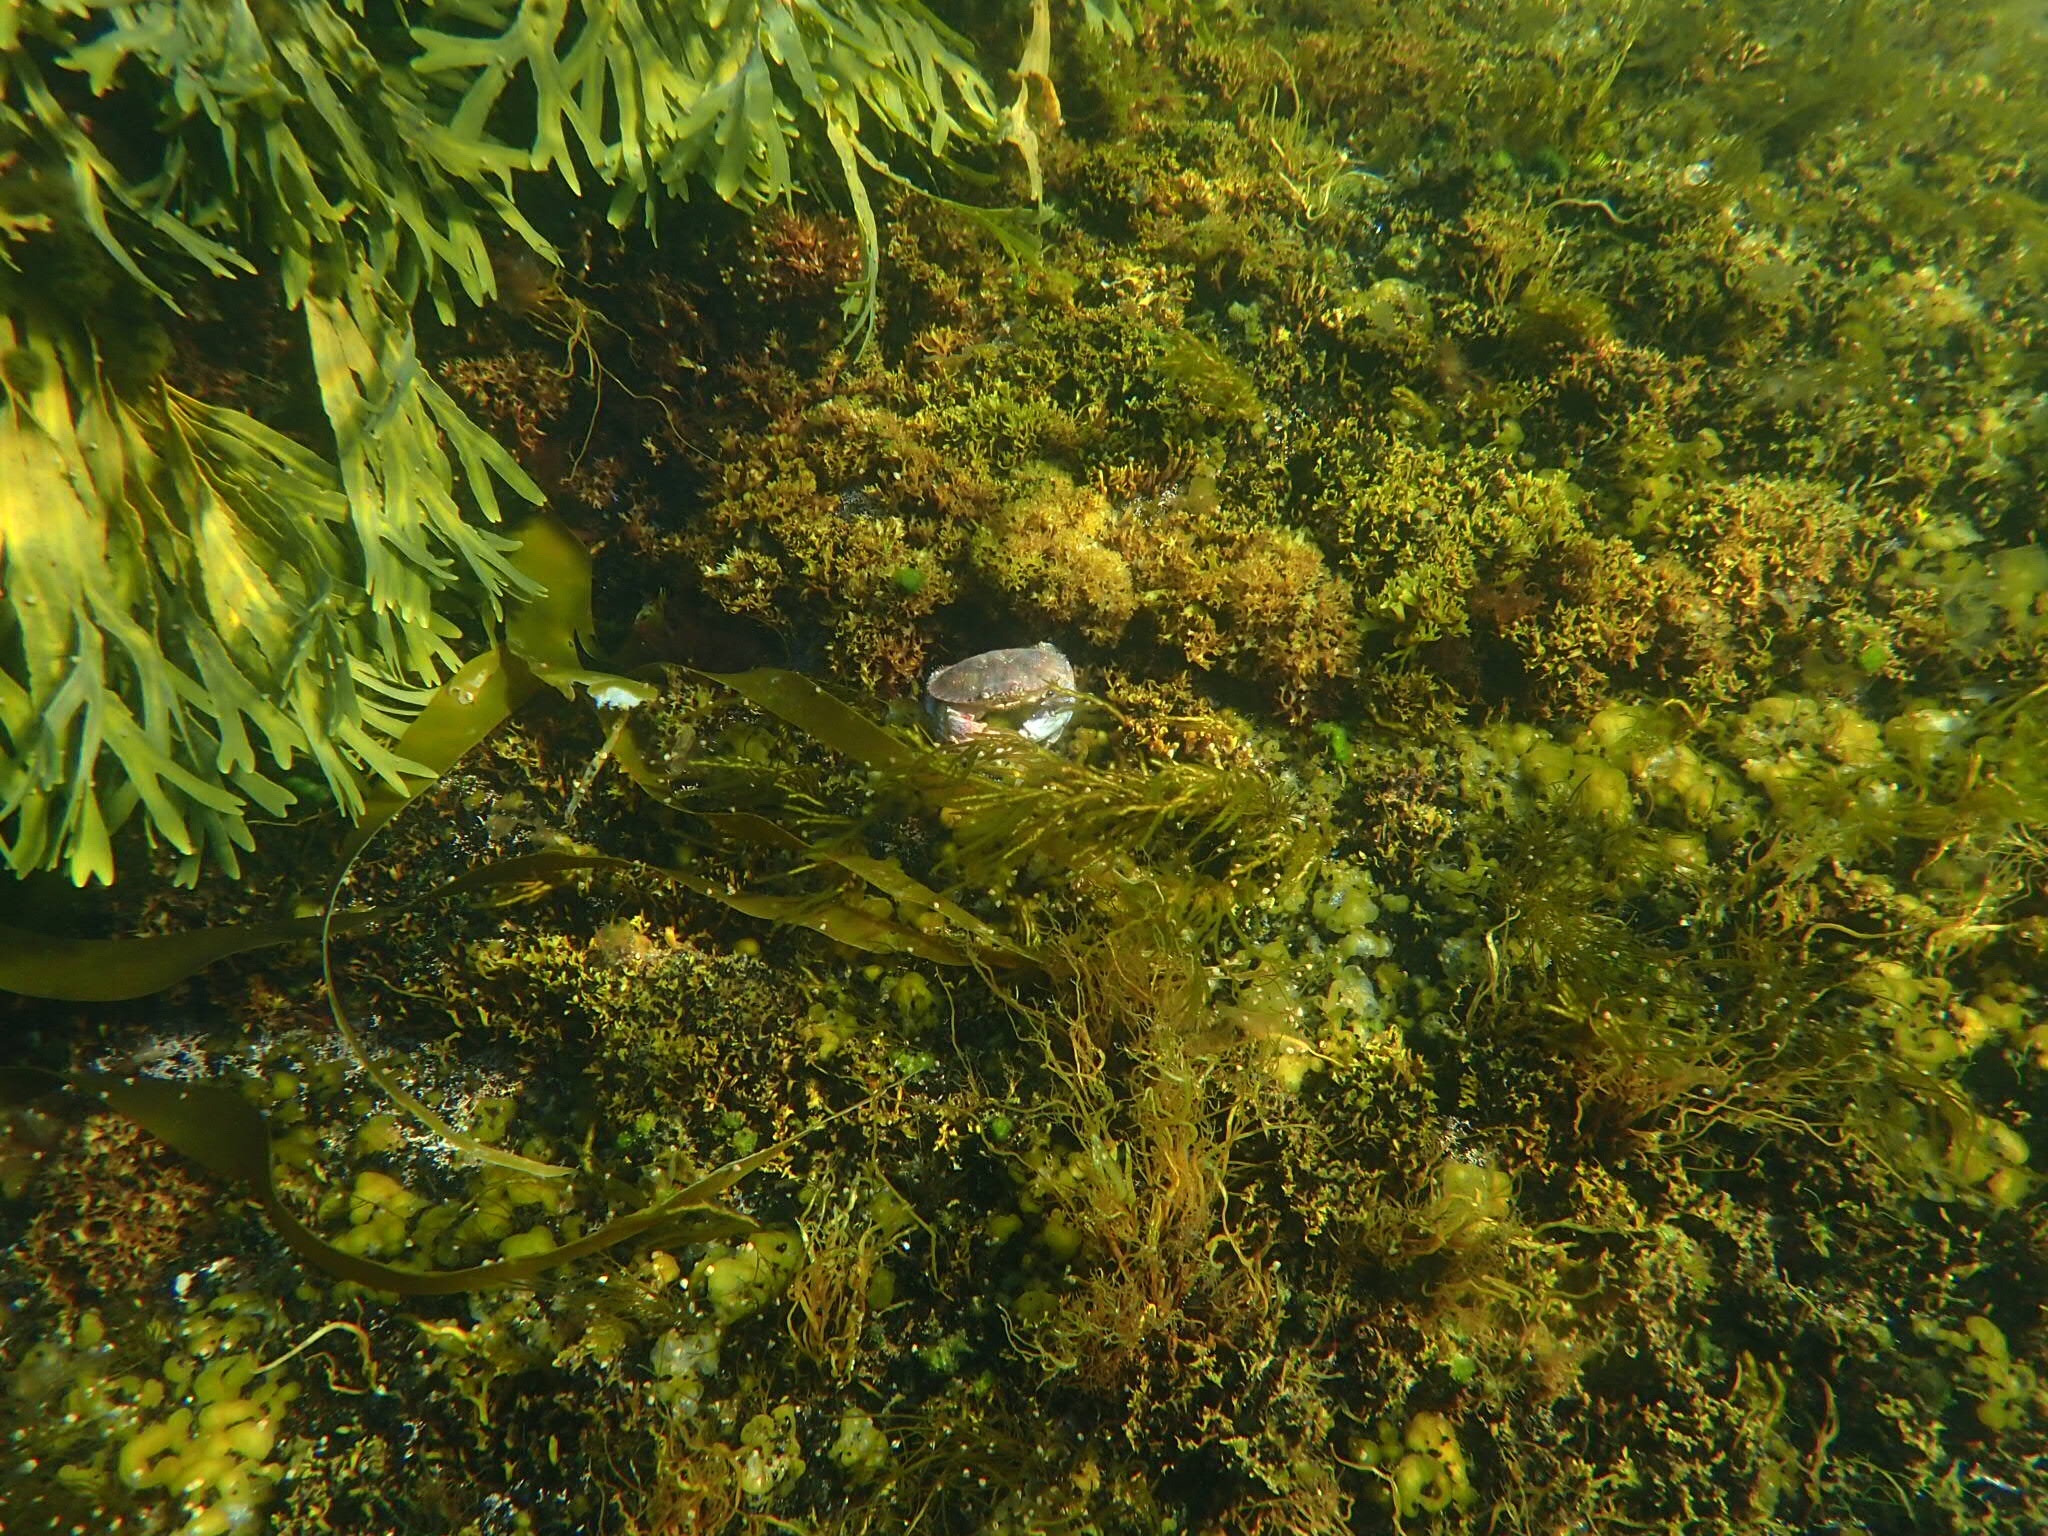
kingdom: Animalia
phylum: Arthropoda
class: Malacostraca
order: Decapoda
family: Cancridae
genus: Cancer
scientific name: Cancer irroratus
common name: Atlantic rock crab
